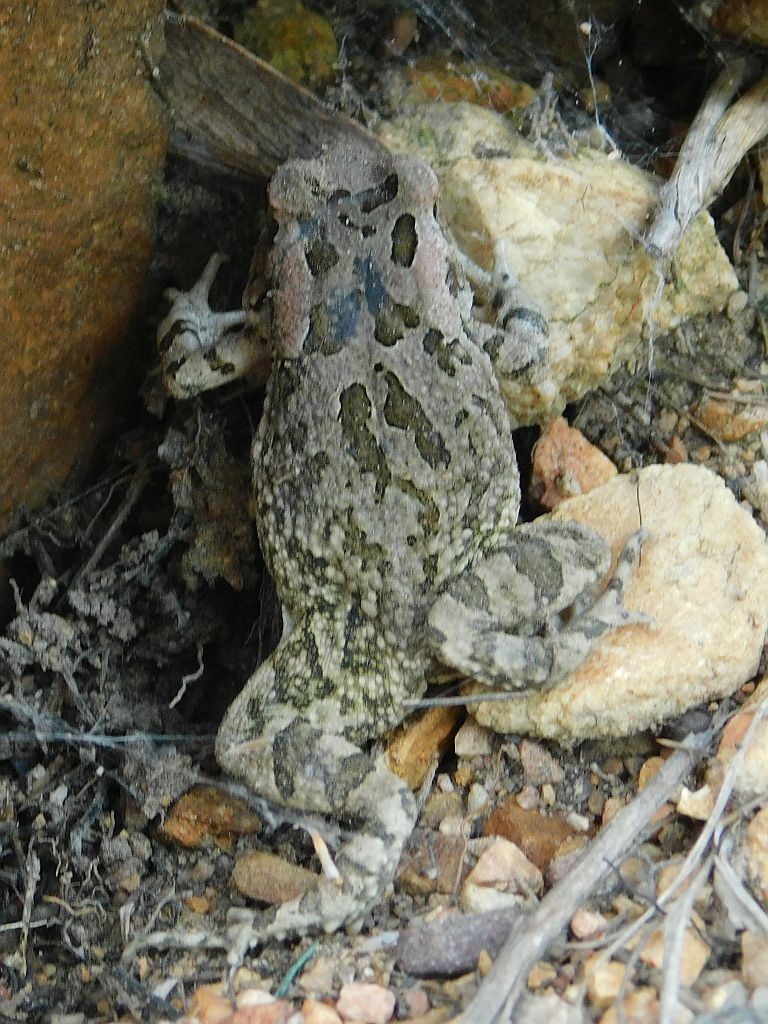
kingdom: Animalia
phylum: Chordata
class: Amphibia
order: Anura
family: Bufonidae
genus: Sclerophrys
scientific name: Sclerophrys capensis
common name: Ranger’s toad
